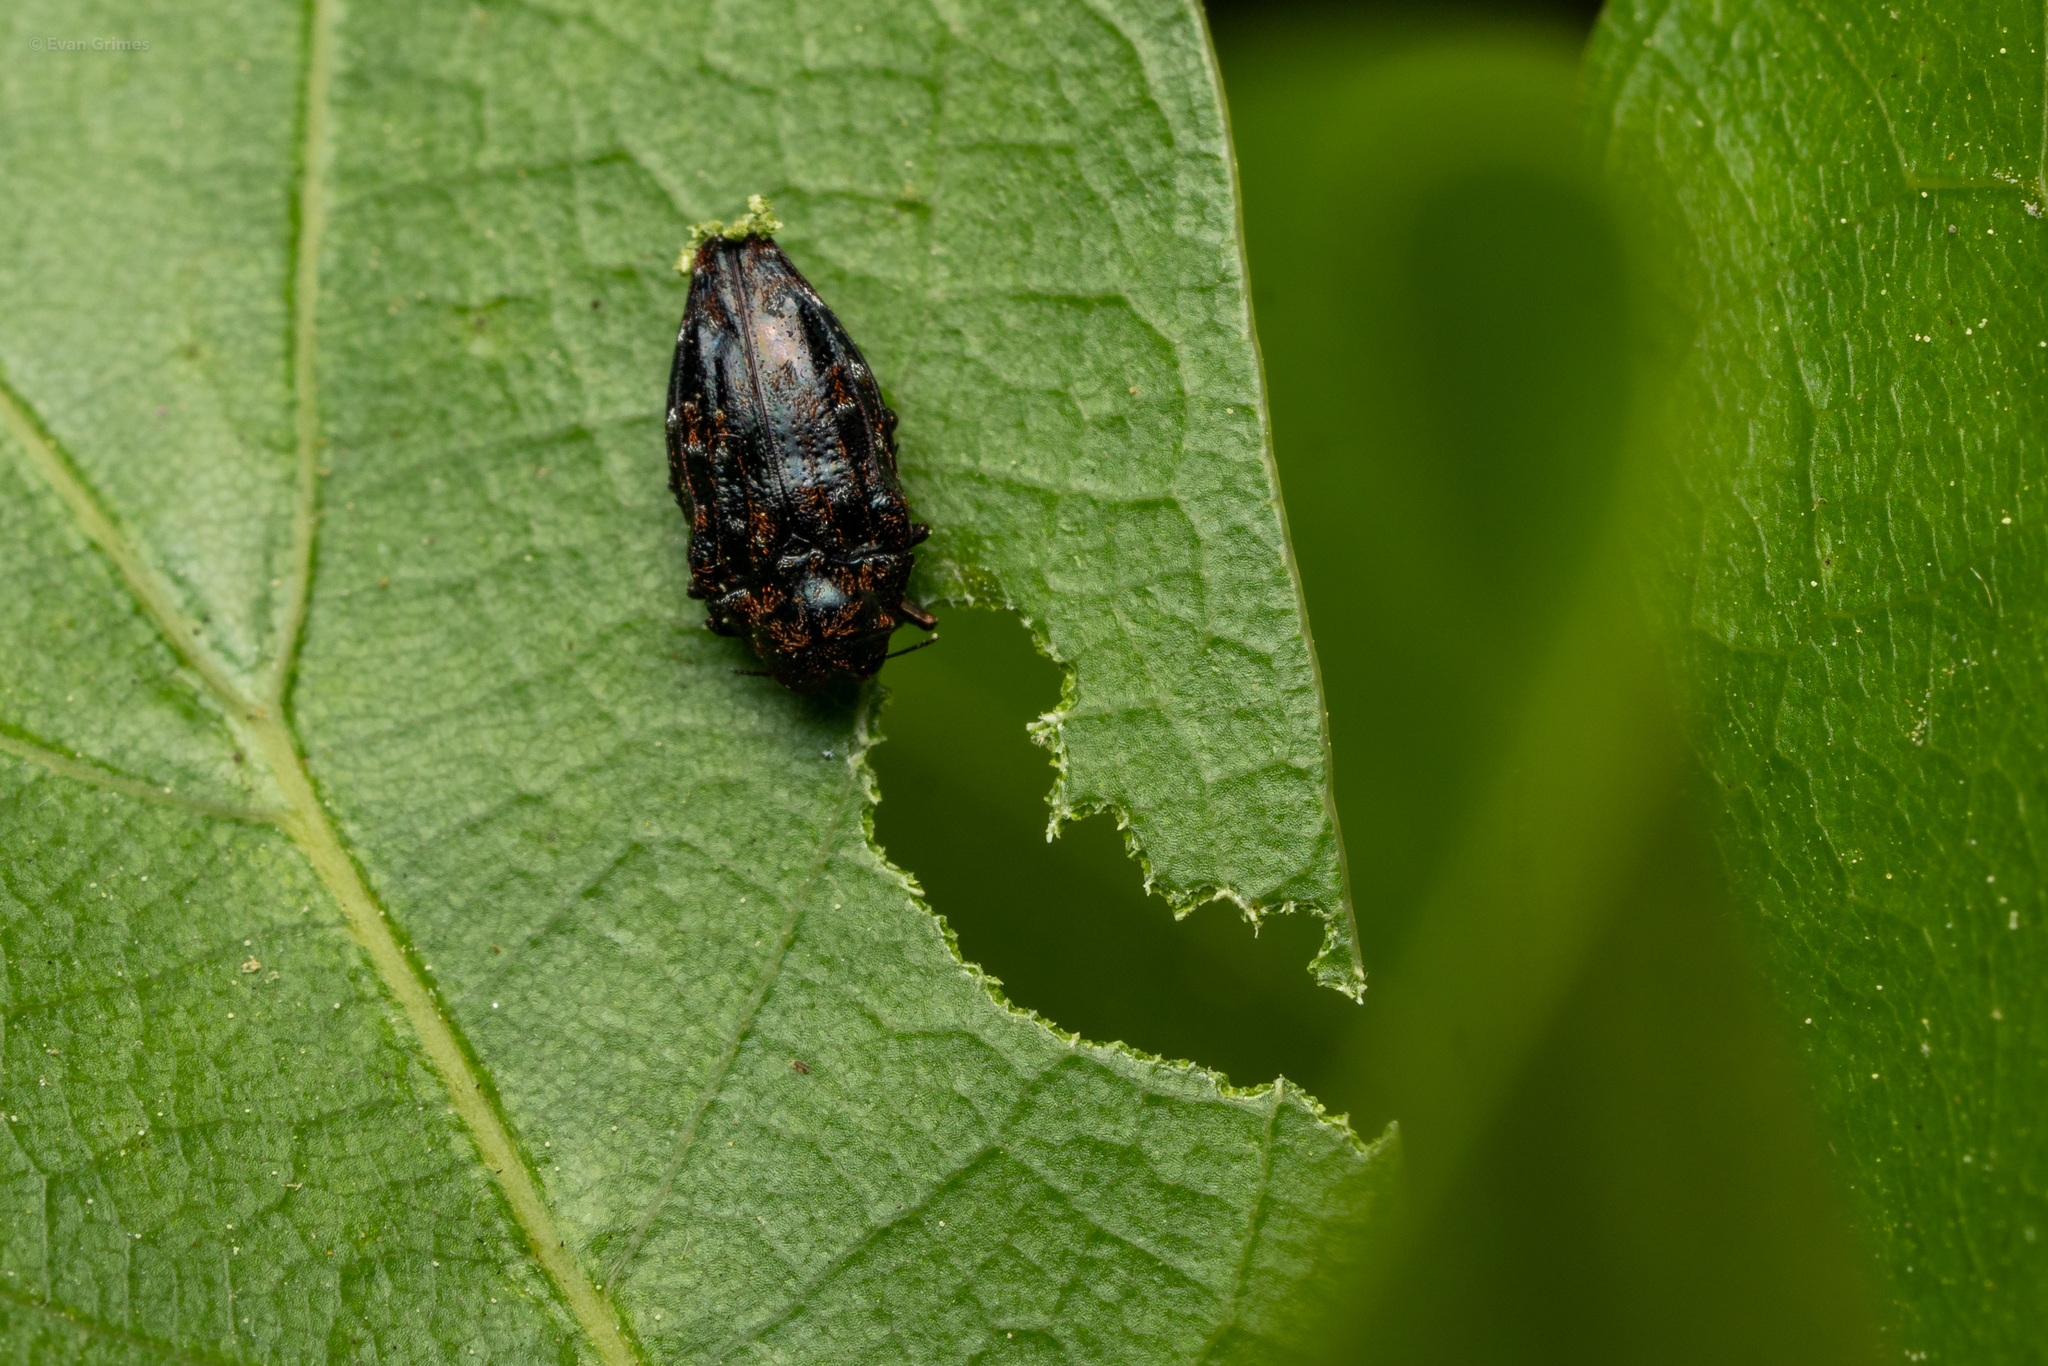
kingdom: Animalia
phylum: Arthropoda
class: Insecta
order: Coleoptera
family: Buprestidae
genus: Brachys
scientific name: Brachys ovatus
